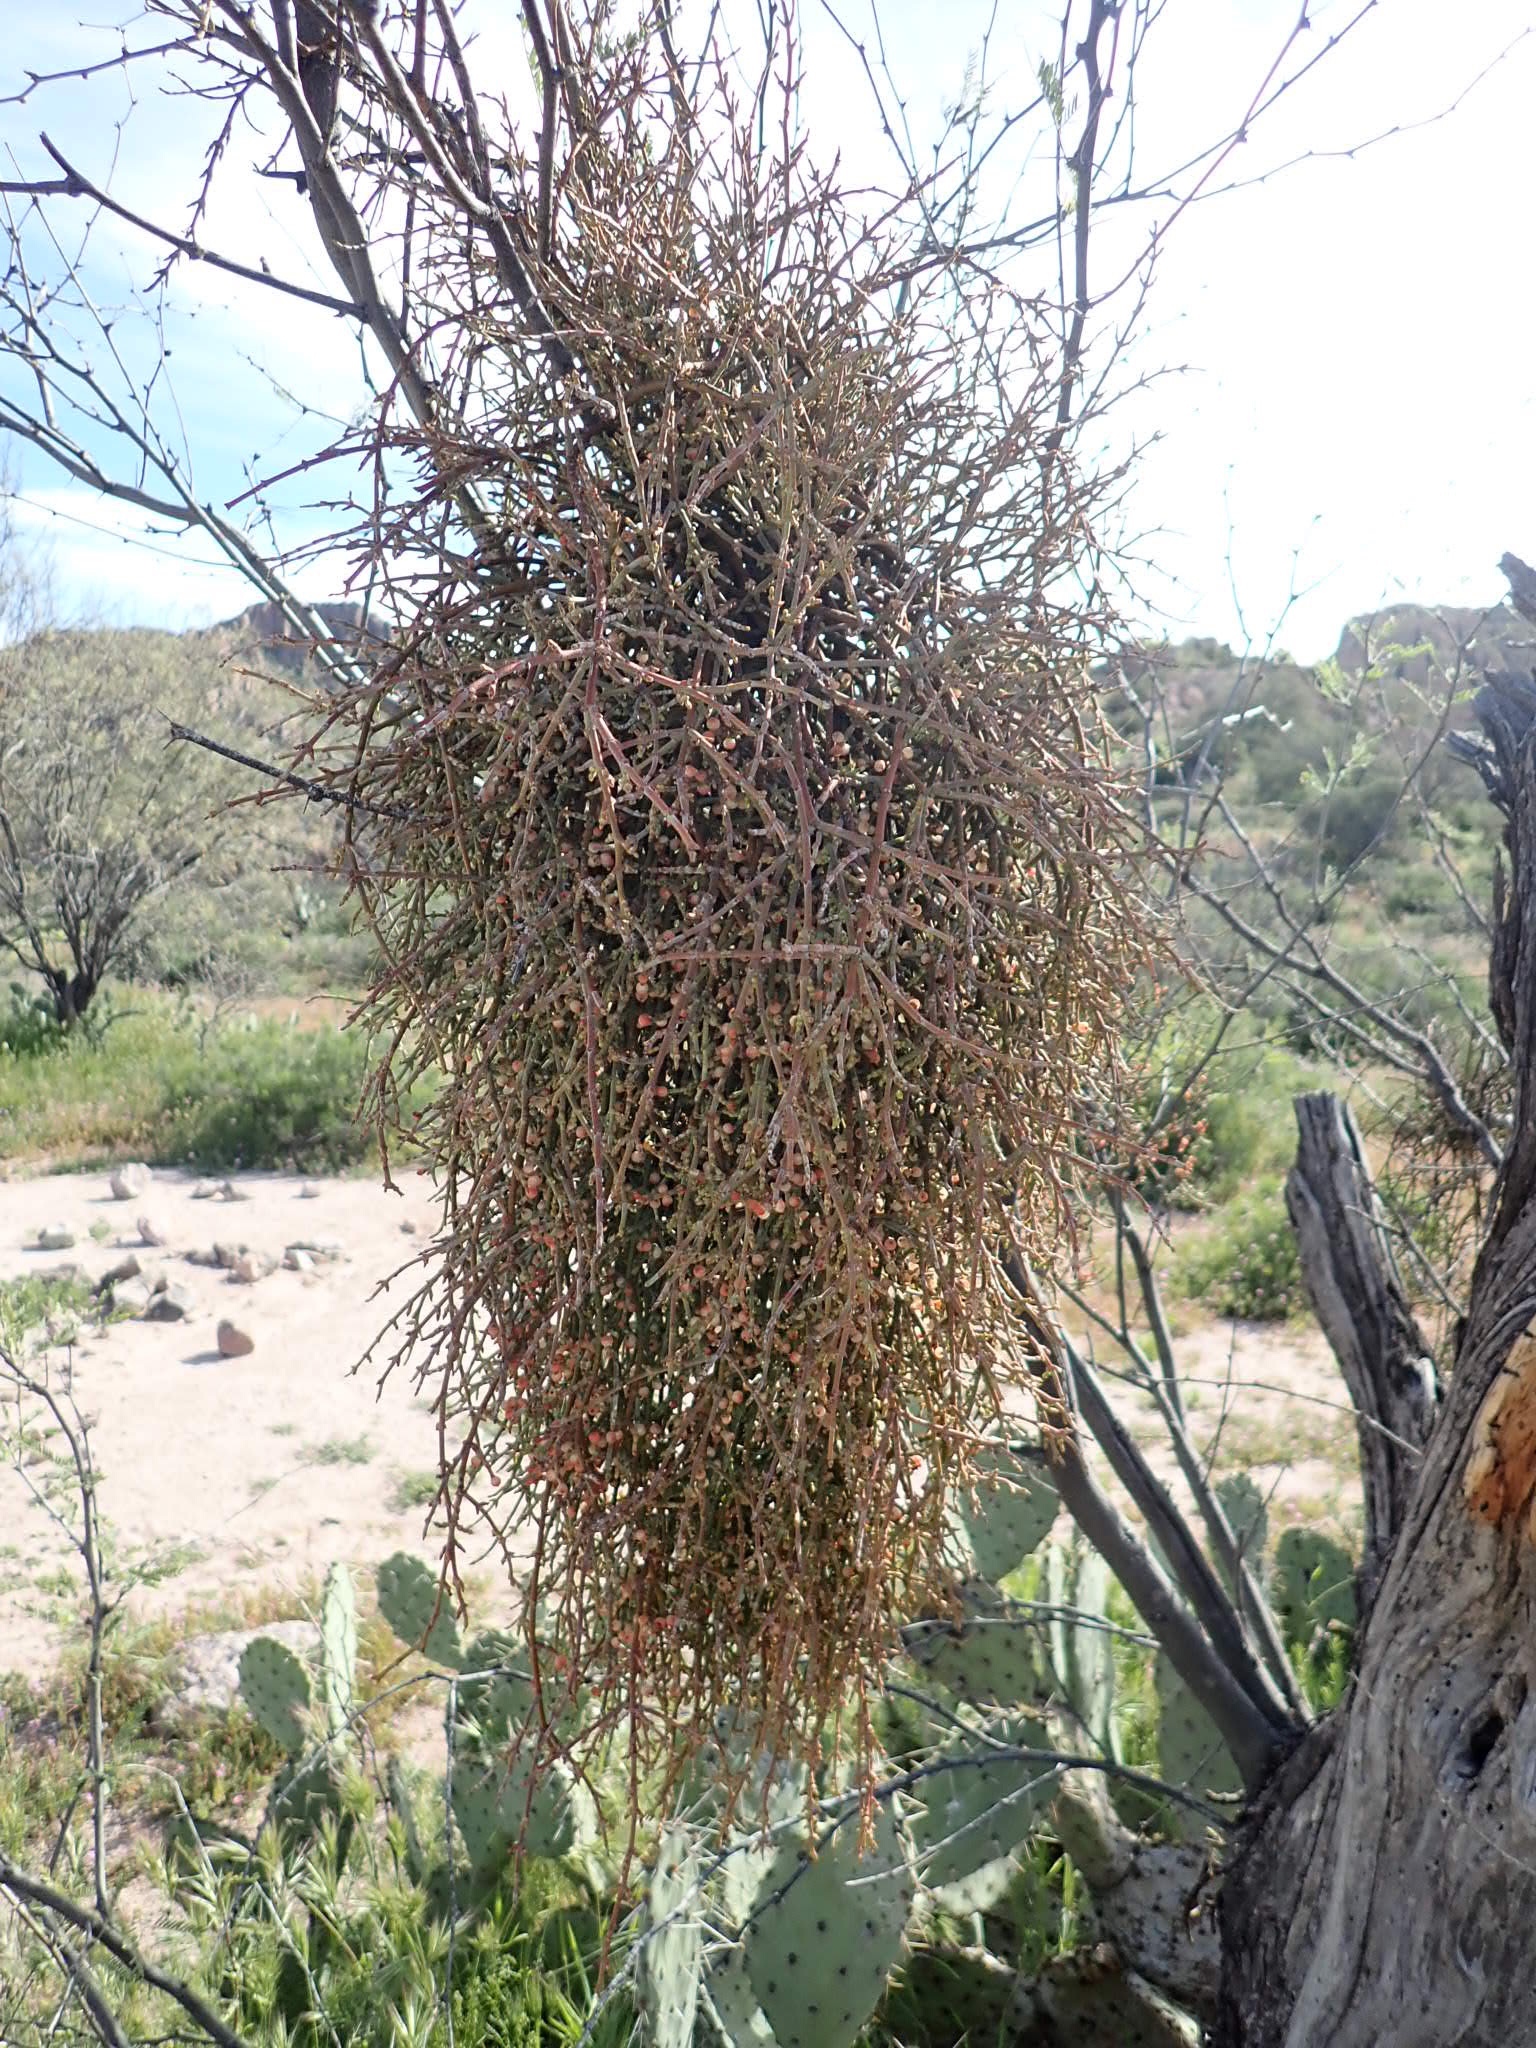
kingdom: Plantae
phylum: Tracheophyta
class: Magnoliopsida
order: Santalales
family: Viscaceae
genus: Phoradendron
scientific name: Phoradendron californicum
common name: Acacia mistletoe
